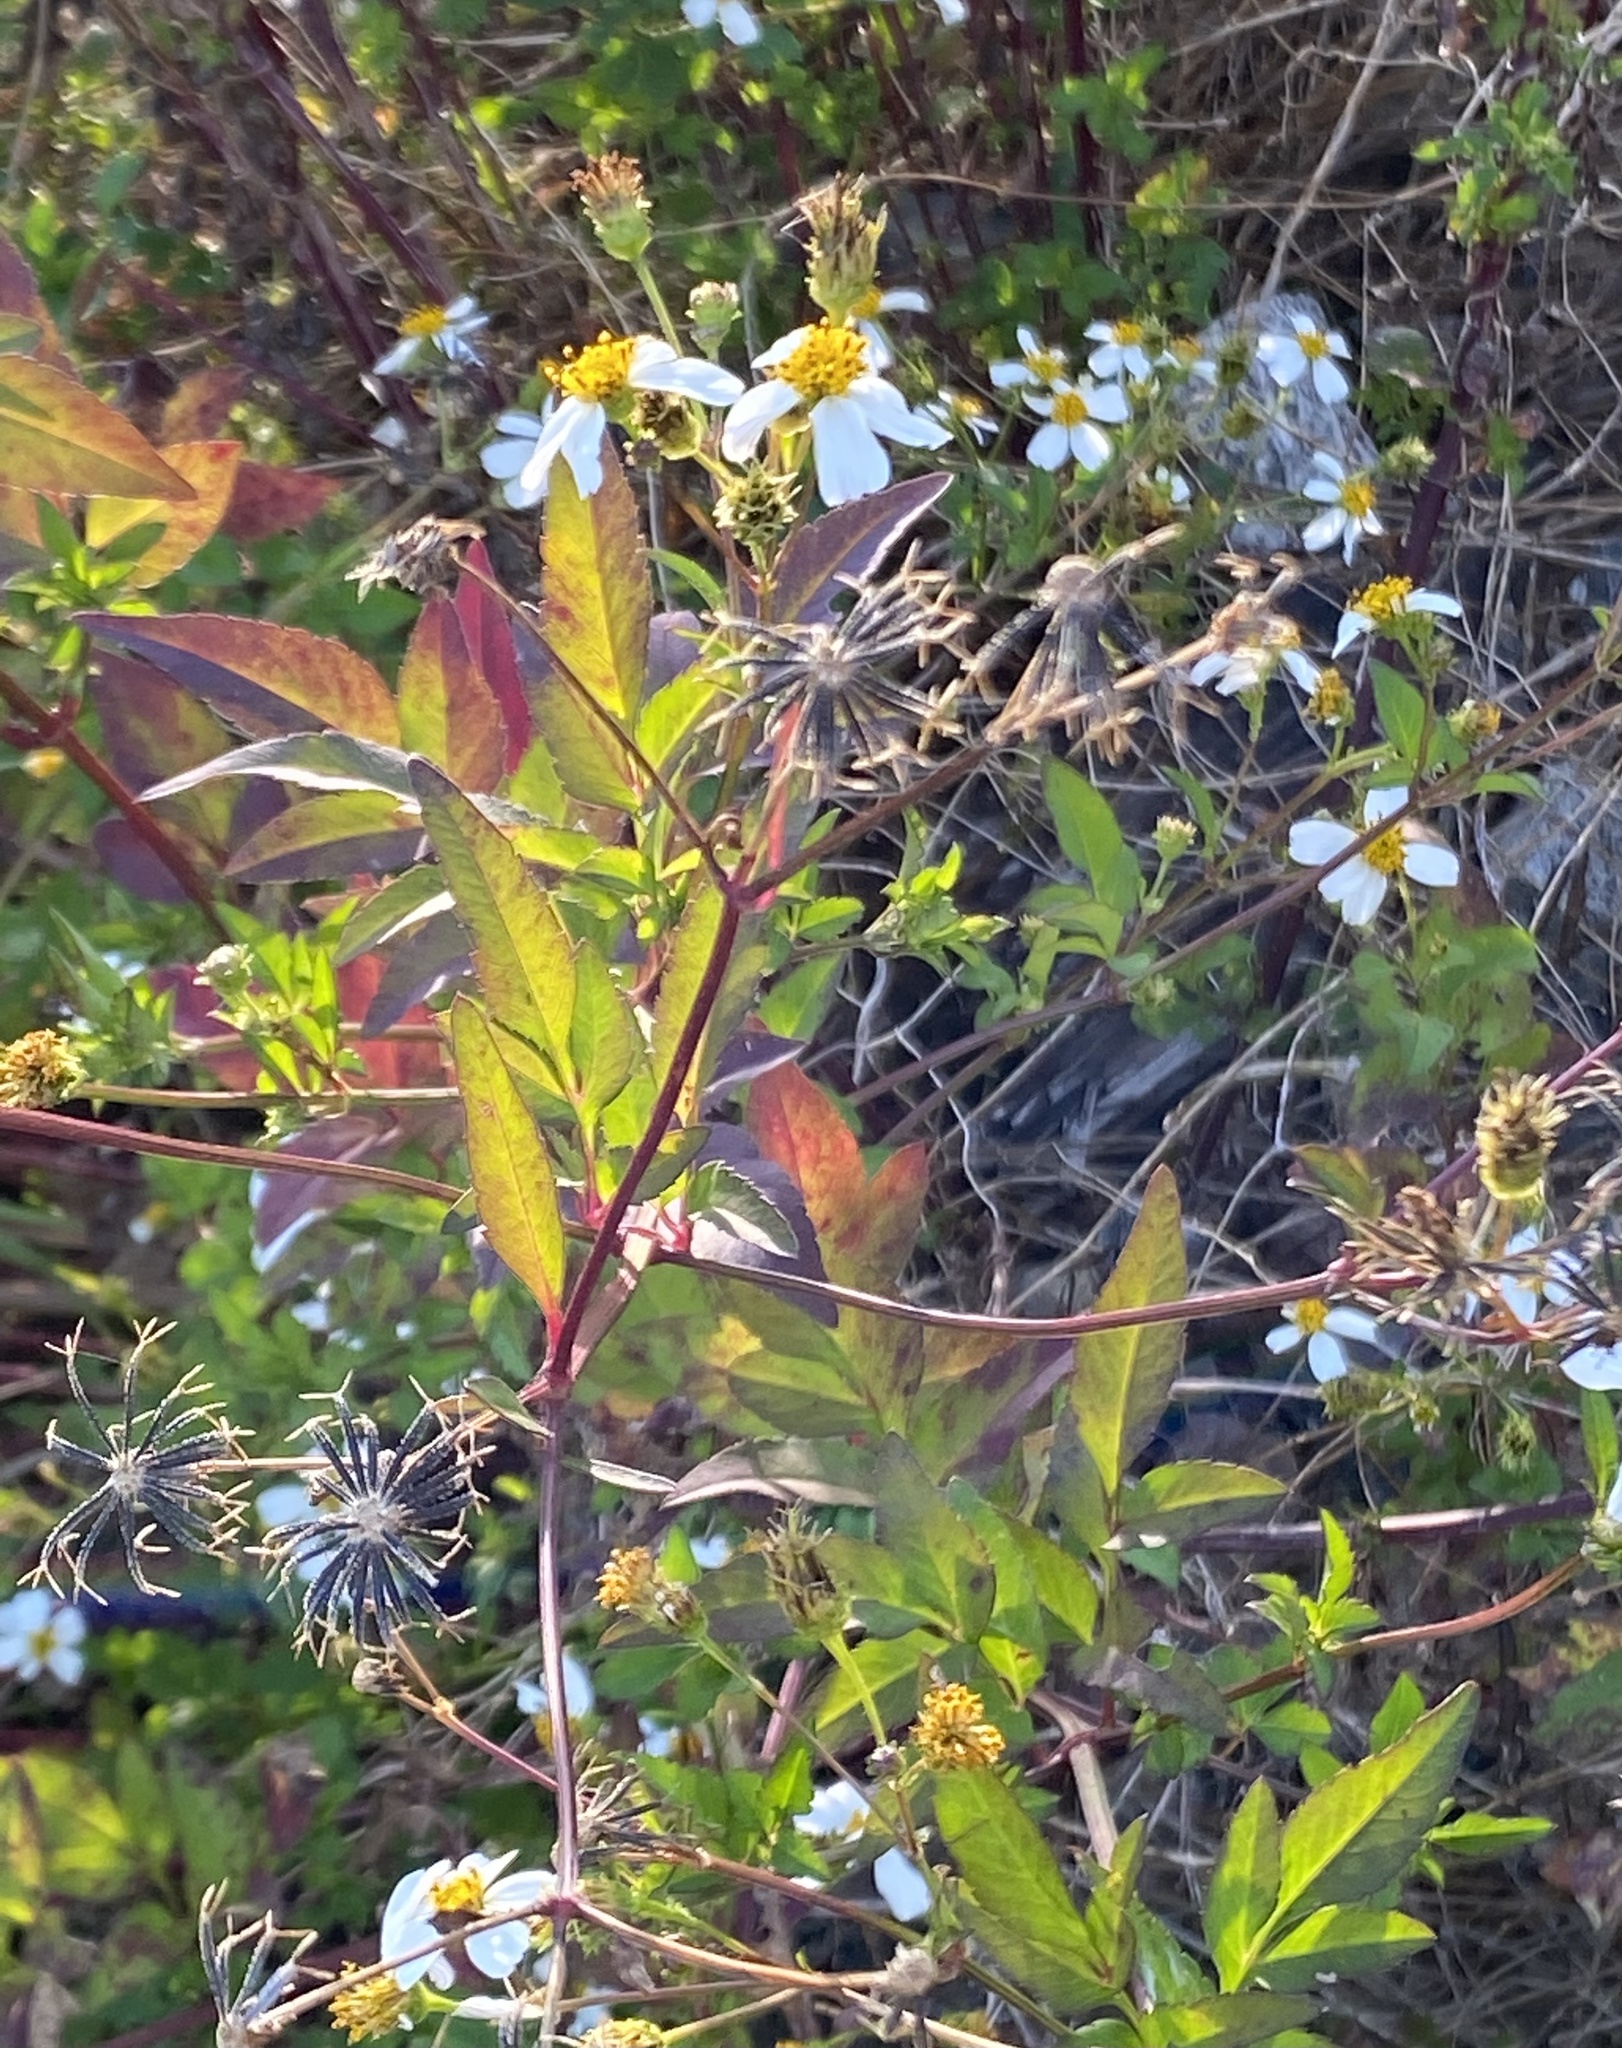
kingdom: Plantae
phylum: Tracheophyta
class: Magnoliopsida
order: Asterales
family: Asteraceae
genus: Bidens
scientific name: Bidens alba
